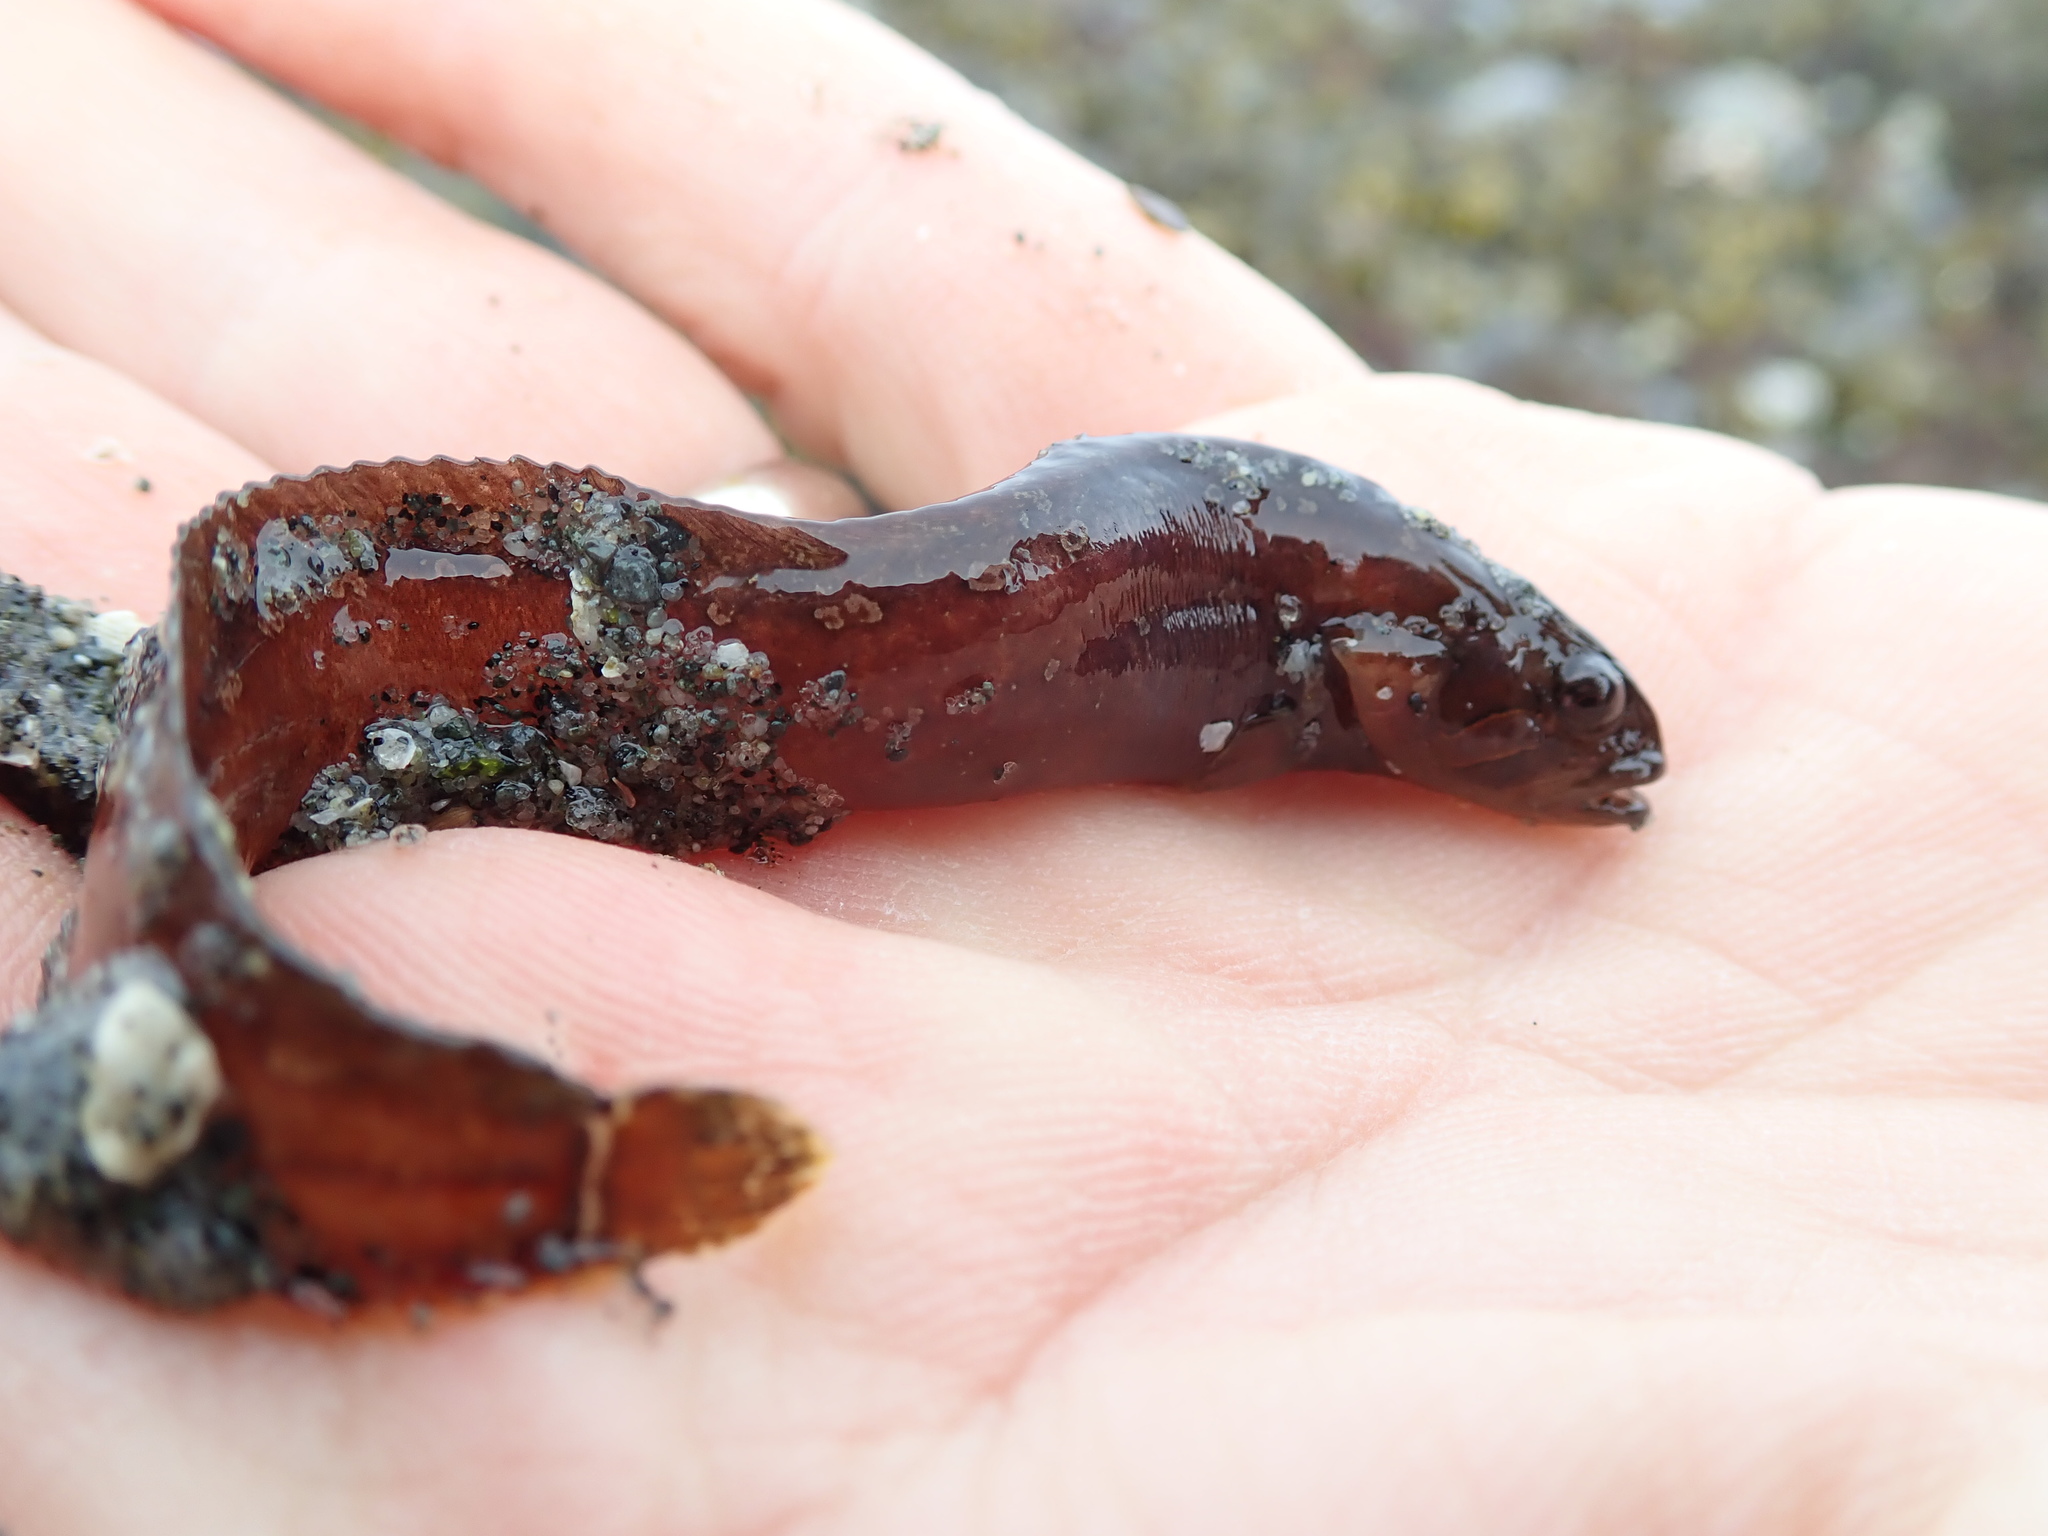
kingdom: Animalia
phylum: Chordata
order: Perciformes
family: Stichaeidae
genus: Xiphister
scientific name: Xiphister atropurpureus
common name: Black prickleback
